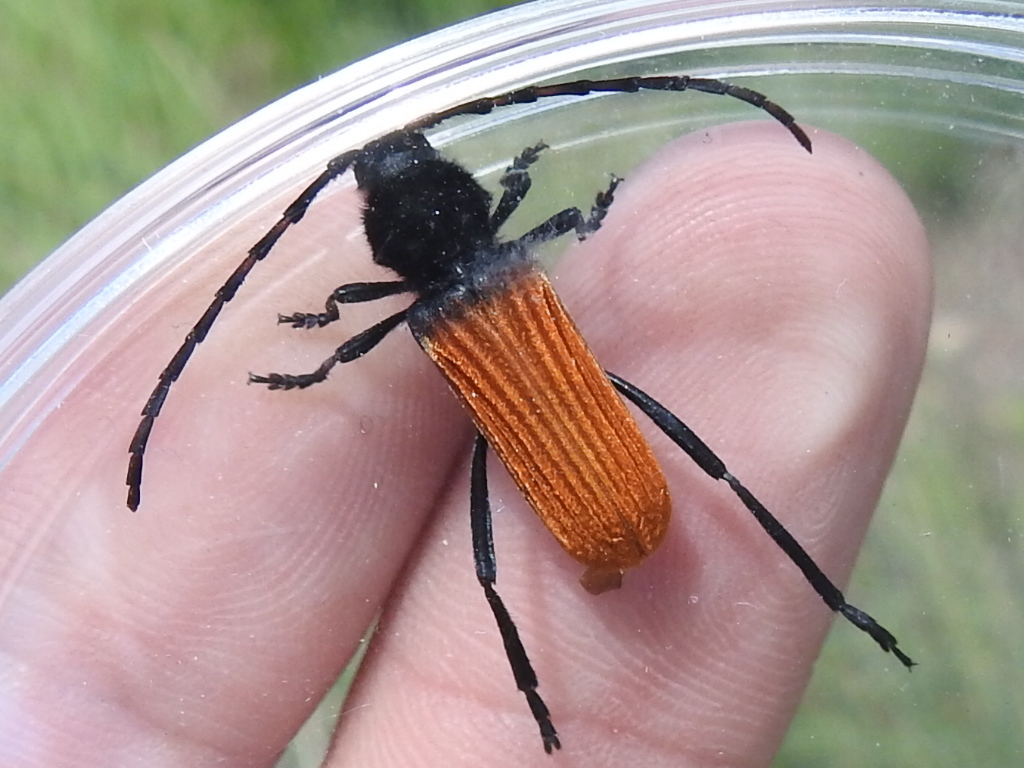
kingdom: Animalia
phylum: Arthropoda
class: Insecta
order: Coleoptera
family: Cerambycidae
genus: Tragidion
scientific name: Tragidion densiventre
